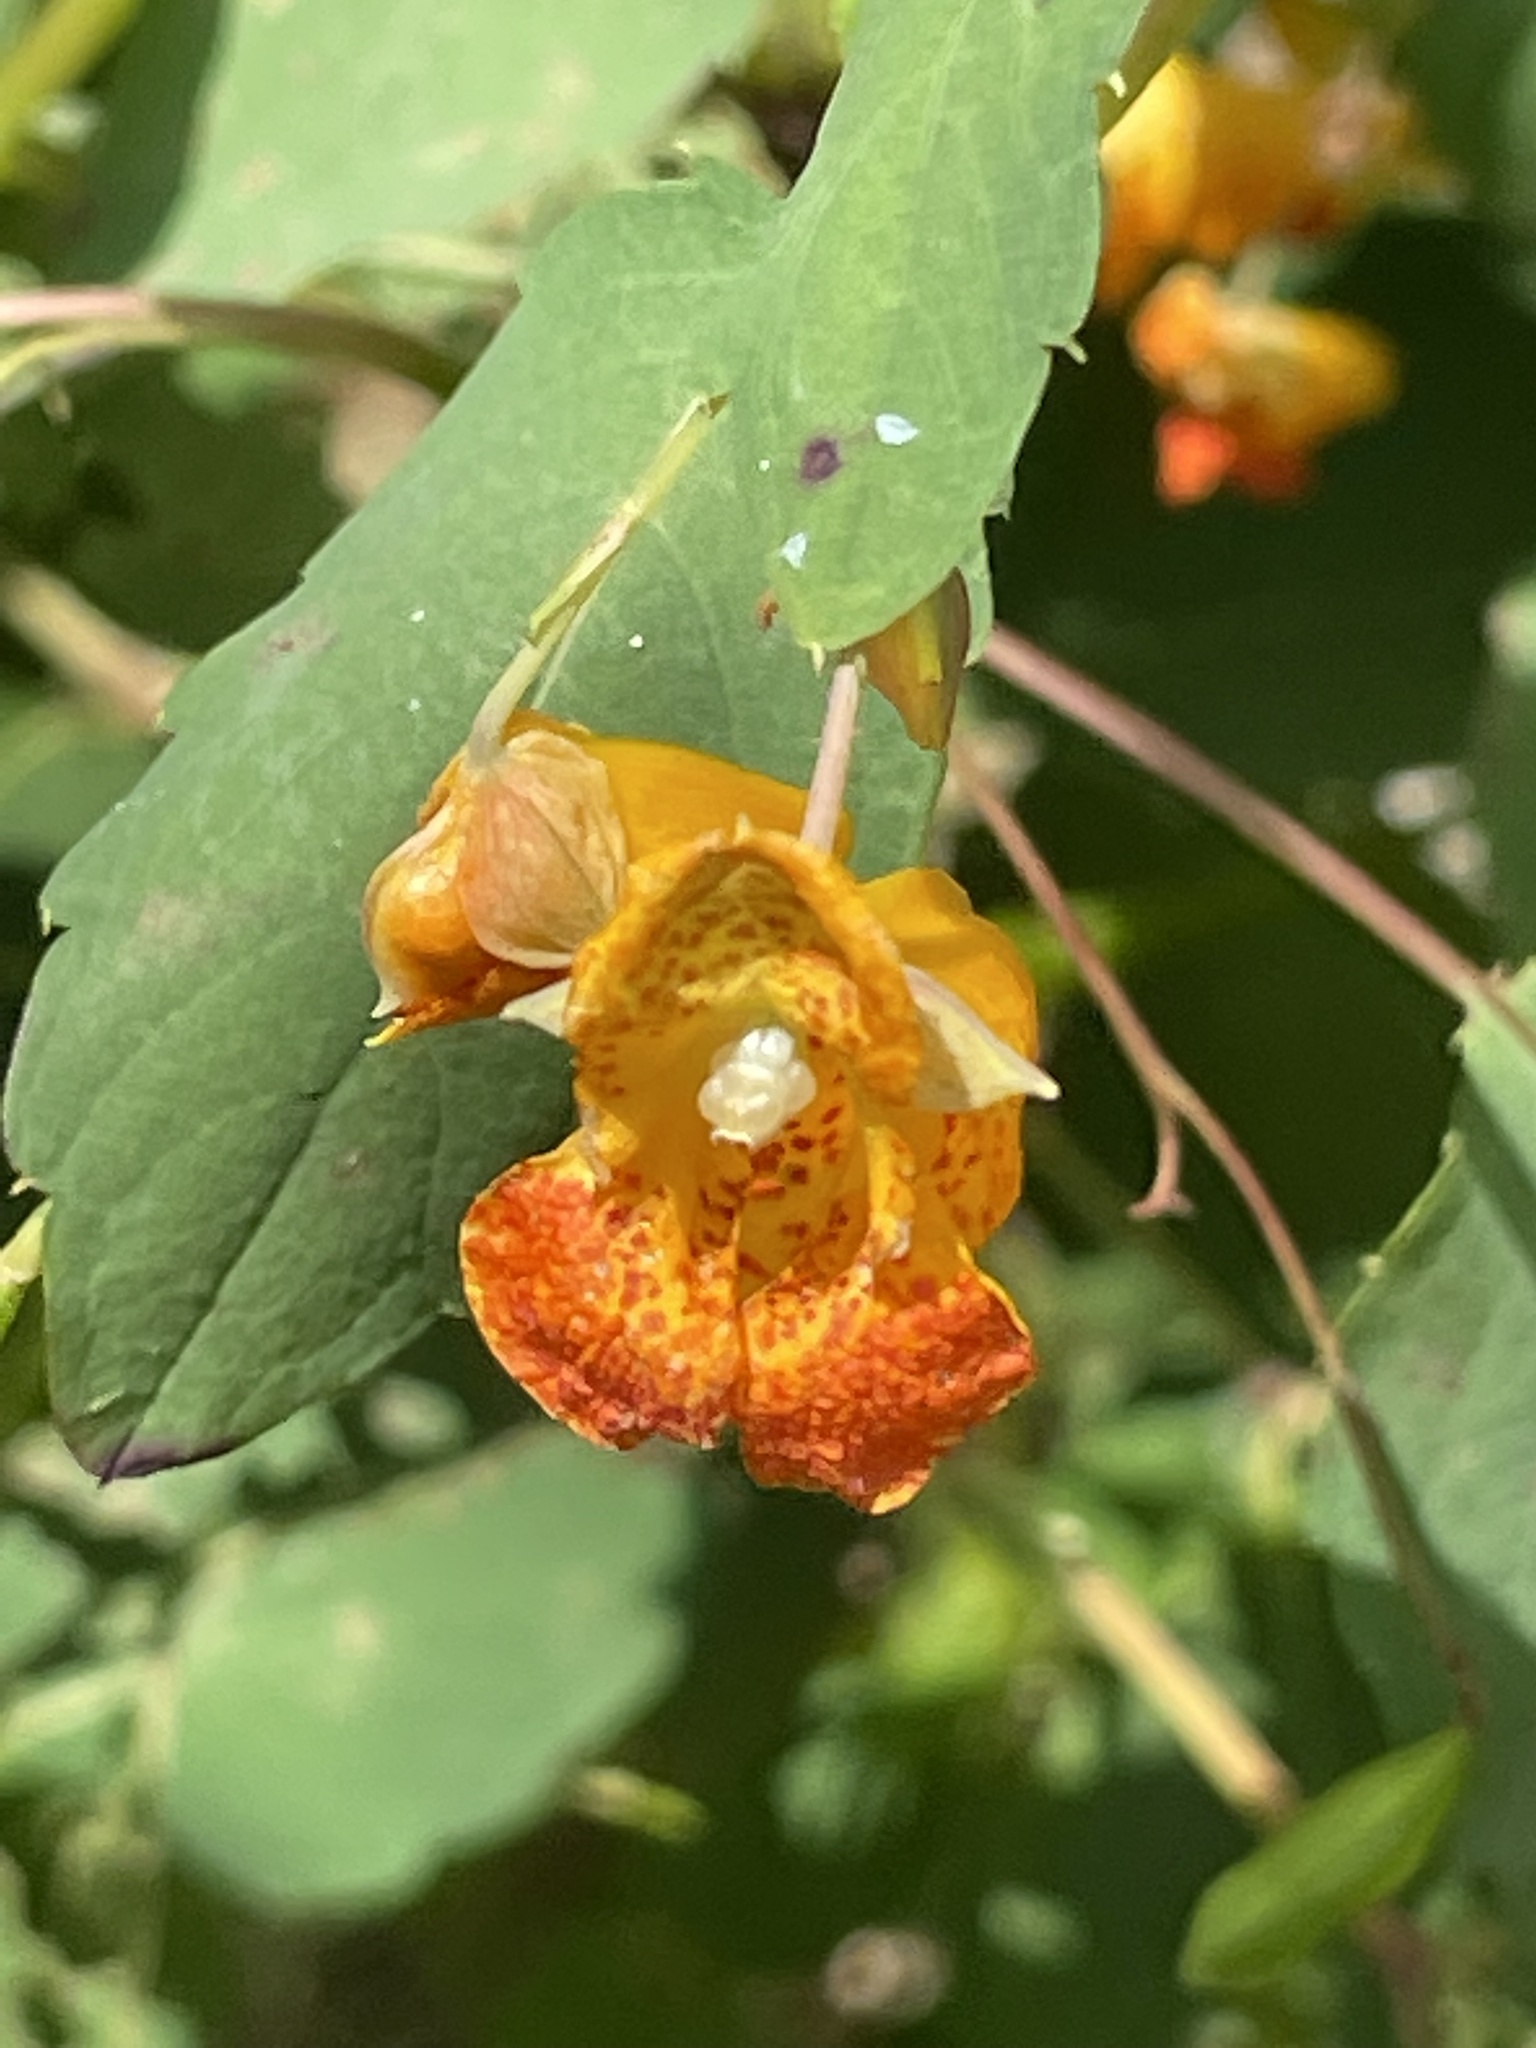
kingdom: Plantae
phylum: Tracheophyta
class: Magnoliopsida
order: Ericales
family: Balsaminaceae
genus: Impatiens
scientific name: Impatiens capensis
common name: Orange balsam
